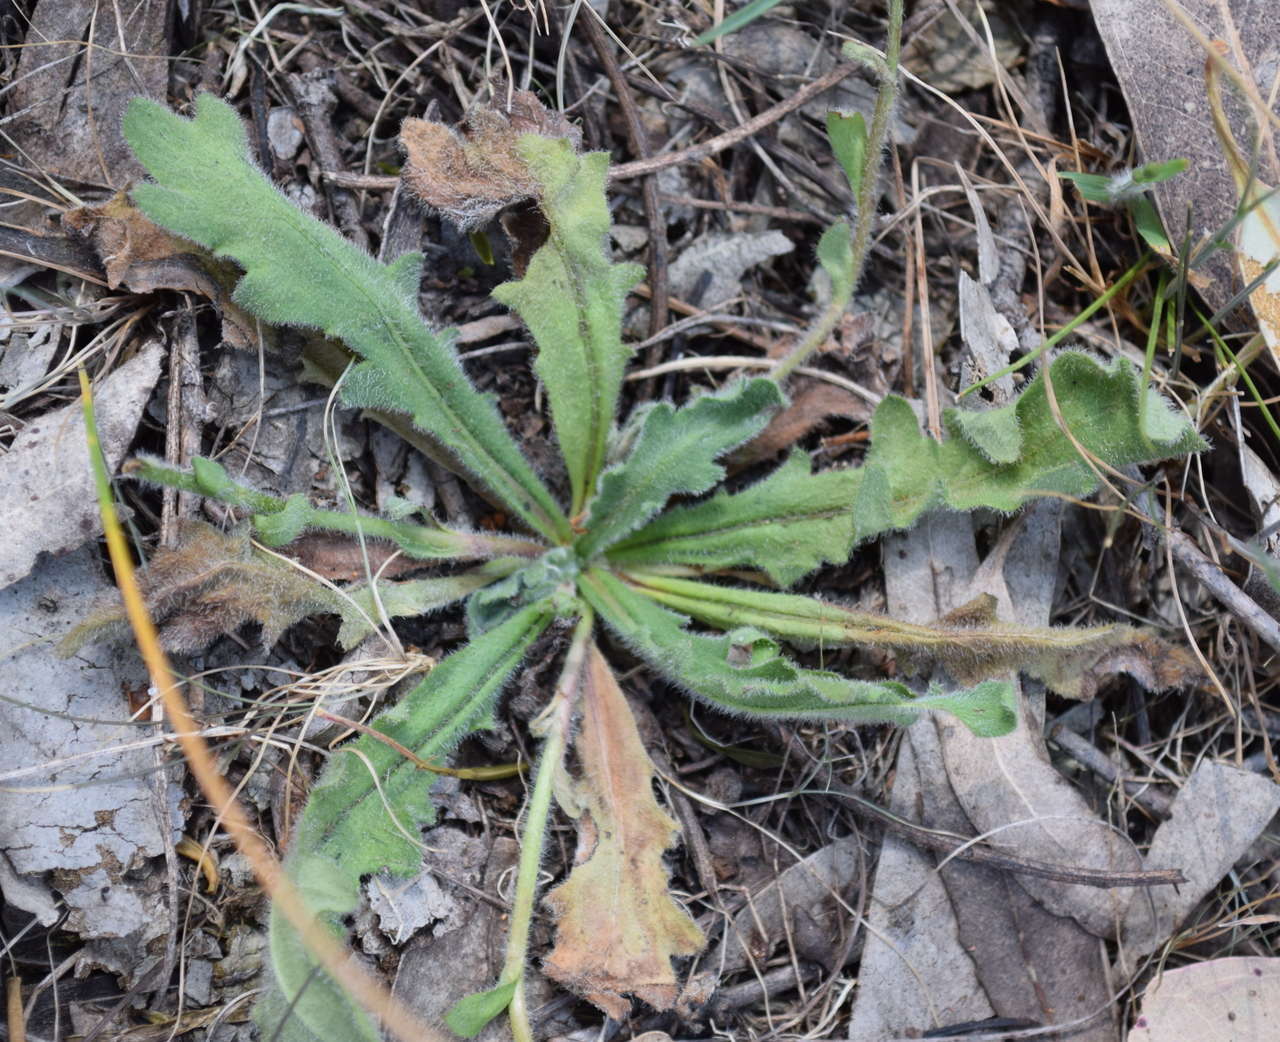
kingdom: Plantae
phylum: Tracheophyta
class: Magnoliopsida
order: Asterales
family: Asteraceae
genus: Lagenophora
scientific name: Lagenophora huegelii
